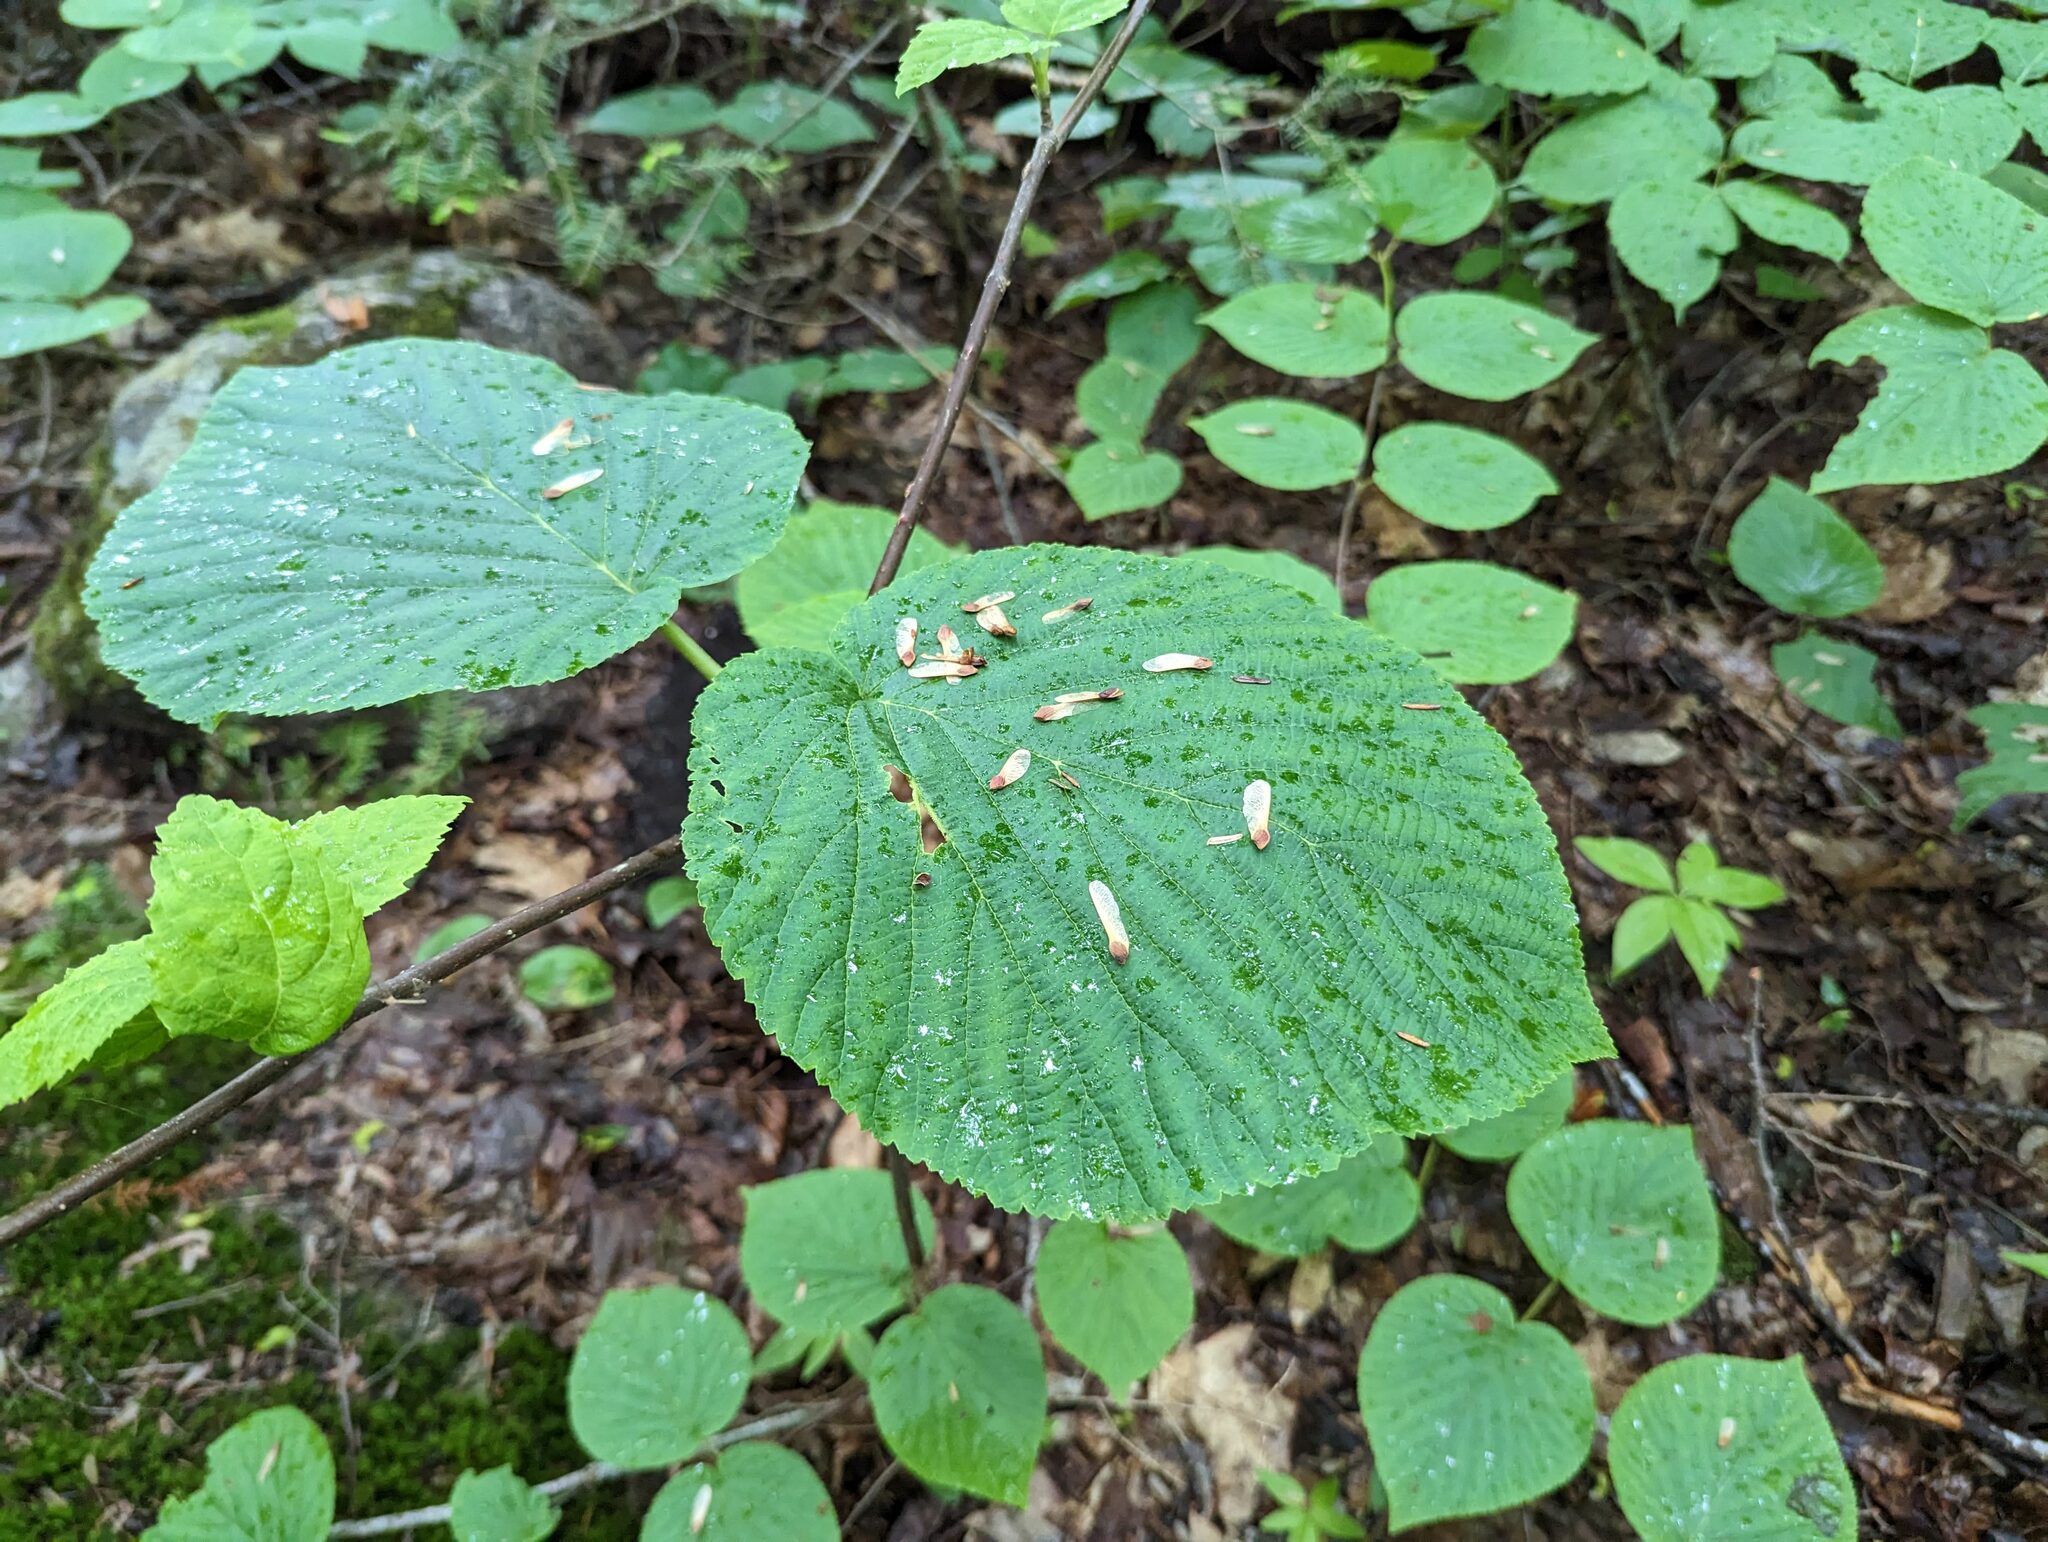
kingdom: Plantae
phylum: Tracheophyta
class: Magnoliopsida
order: Dipsacales
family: Viburnaceae
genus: Viburnum
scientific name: Viburnum lantanoides
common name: Hobblebush
